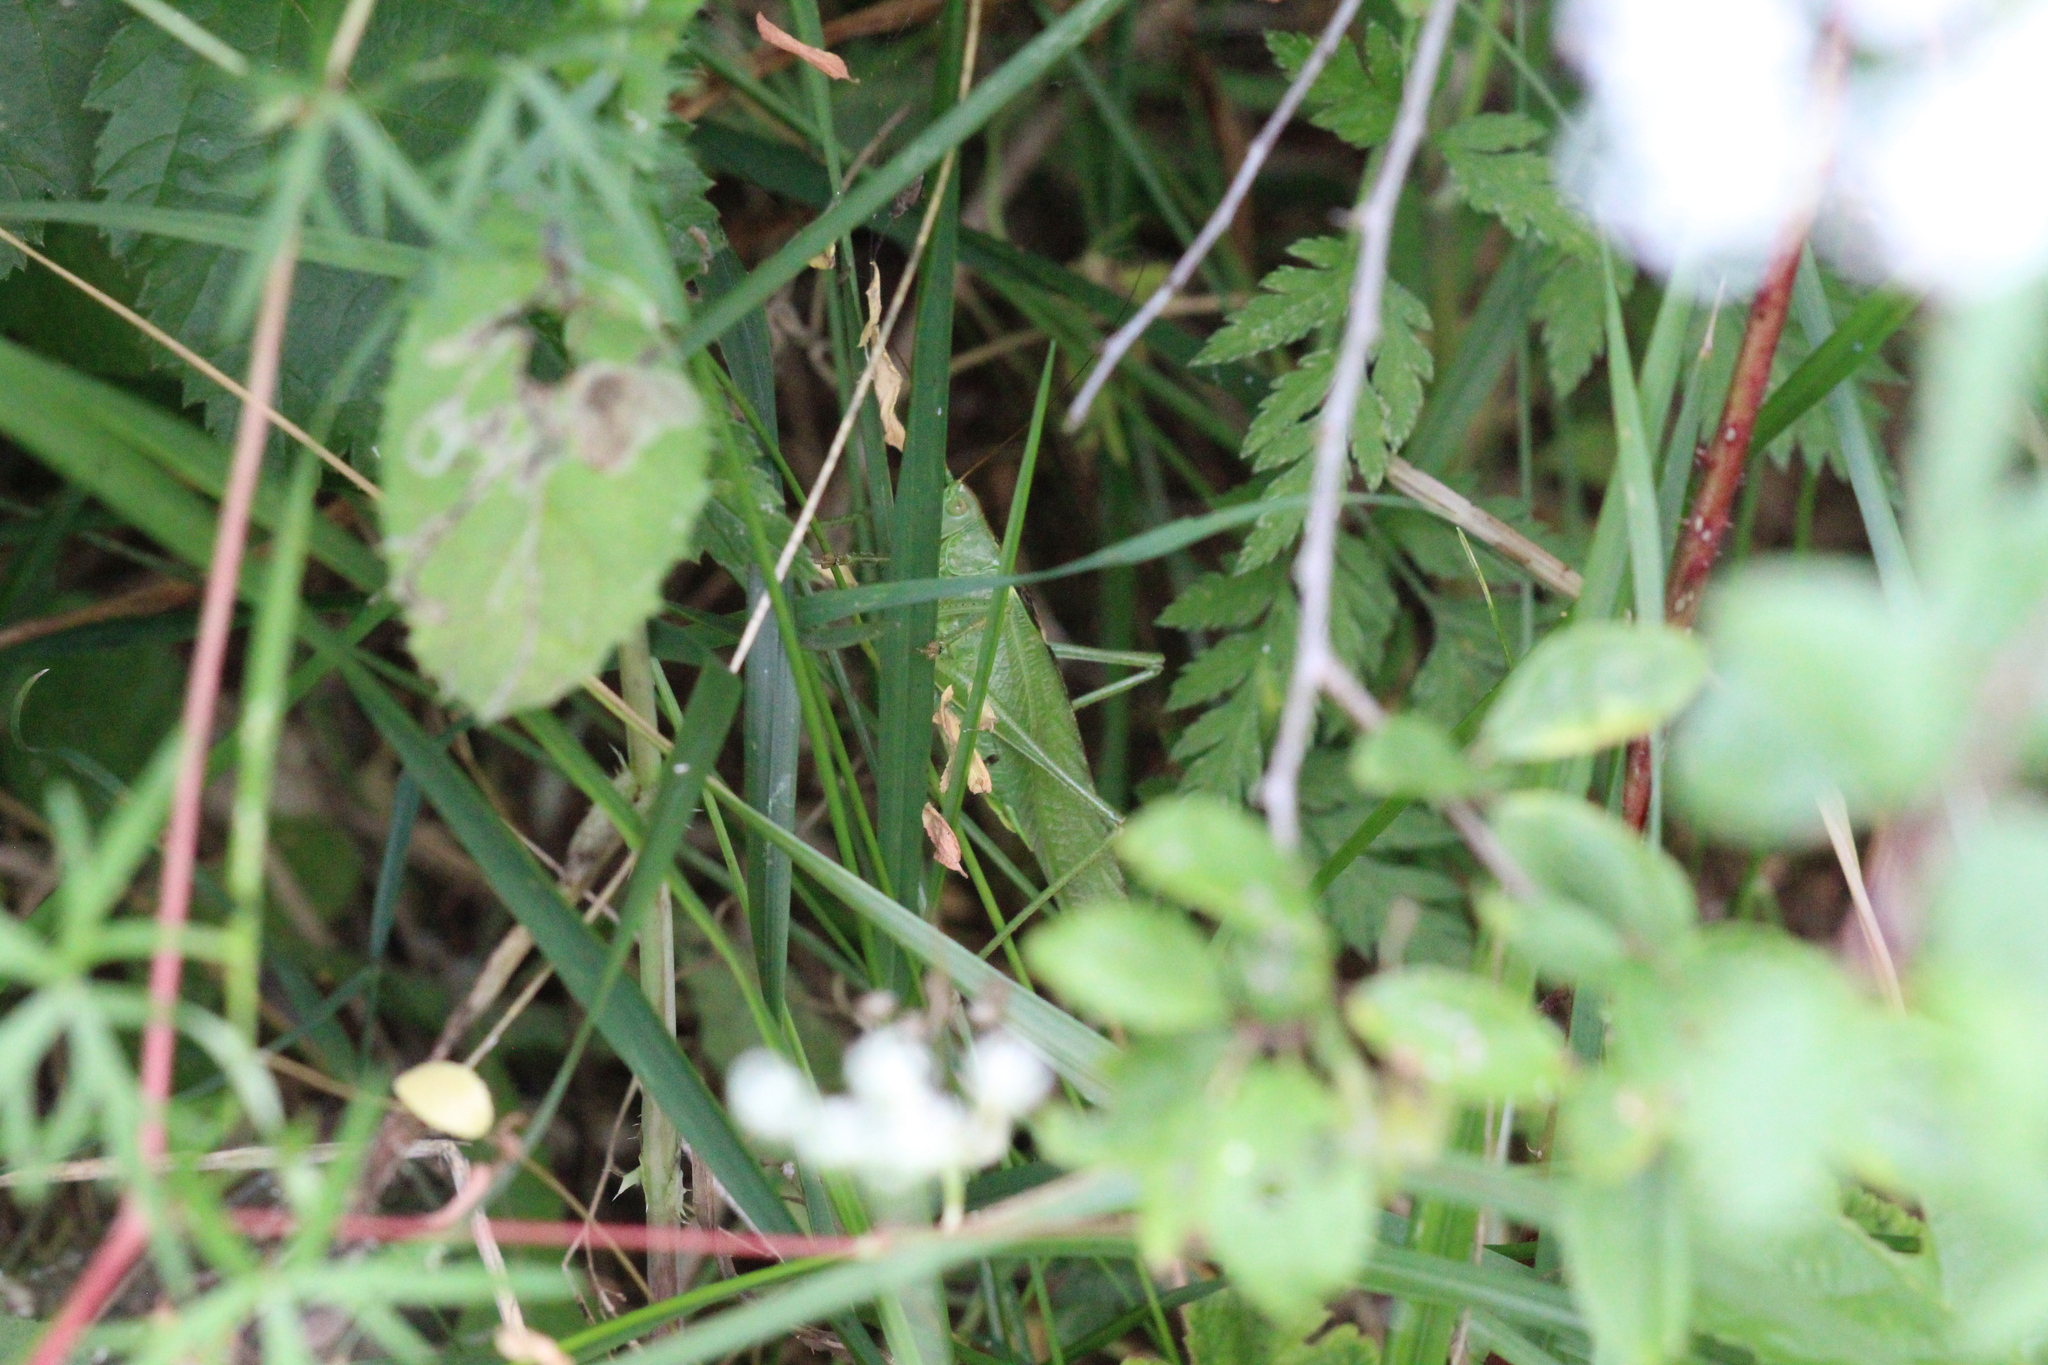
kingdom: Animalia
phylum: Arthropoda
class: Insecta
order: Orthoptera
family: Tettigoniidae
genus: Tettigonia
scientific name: Tettigonia viridissima
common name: Great green bush-cricket
